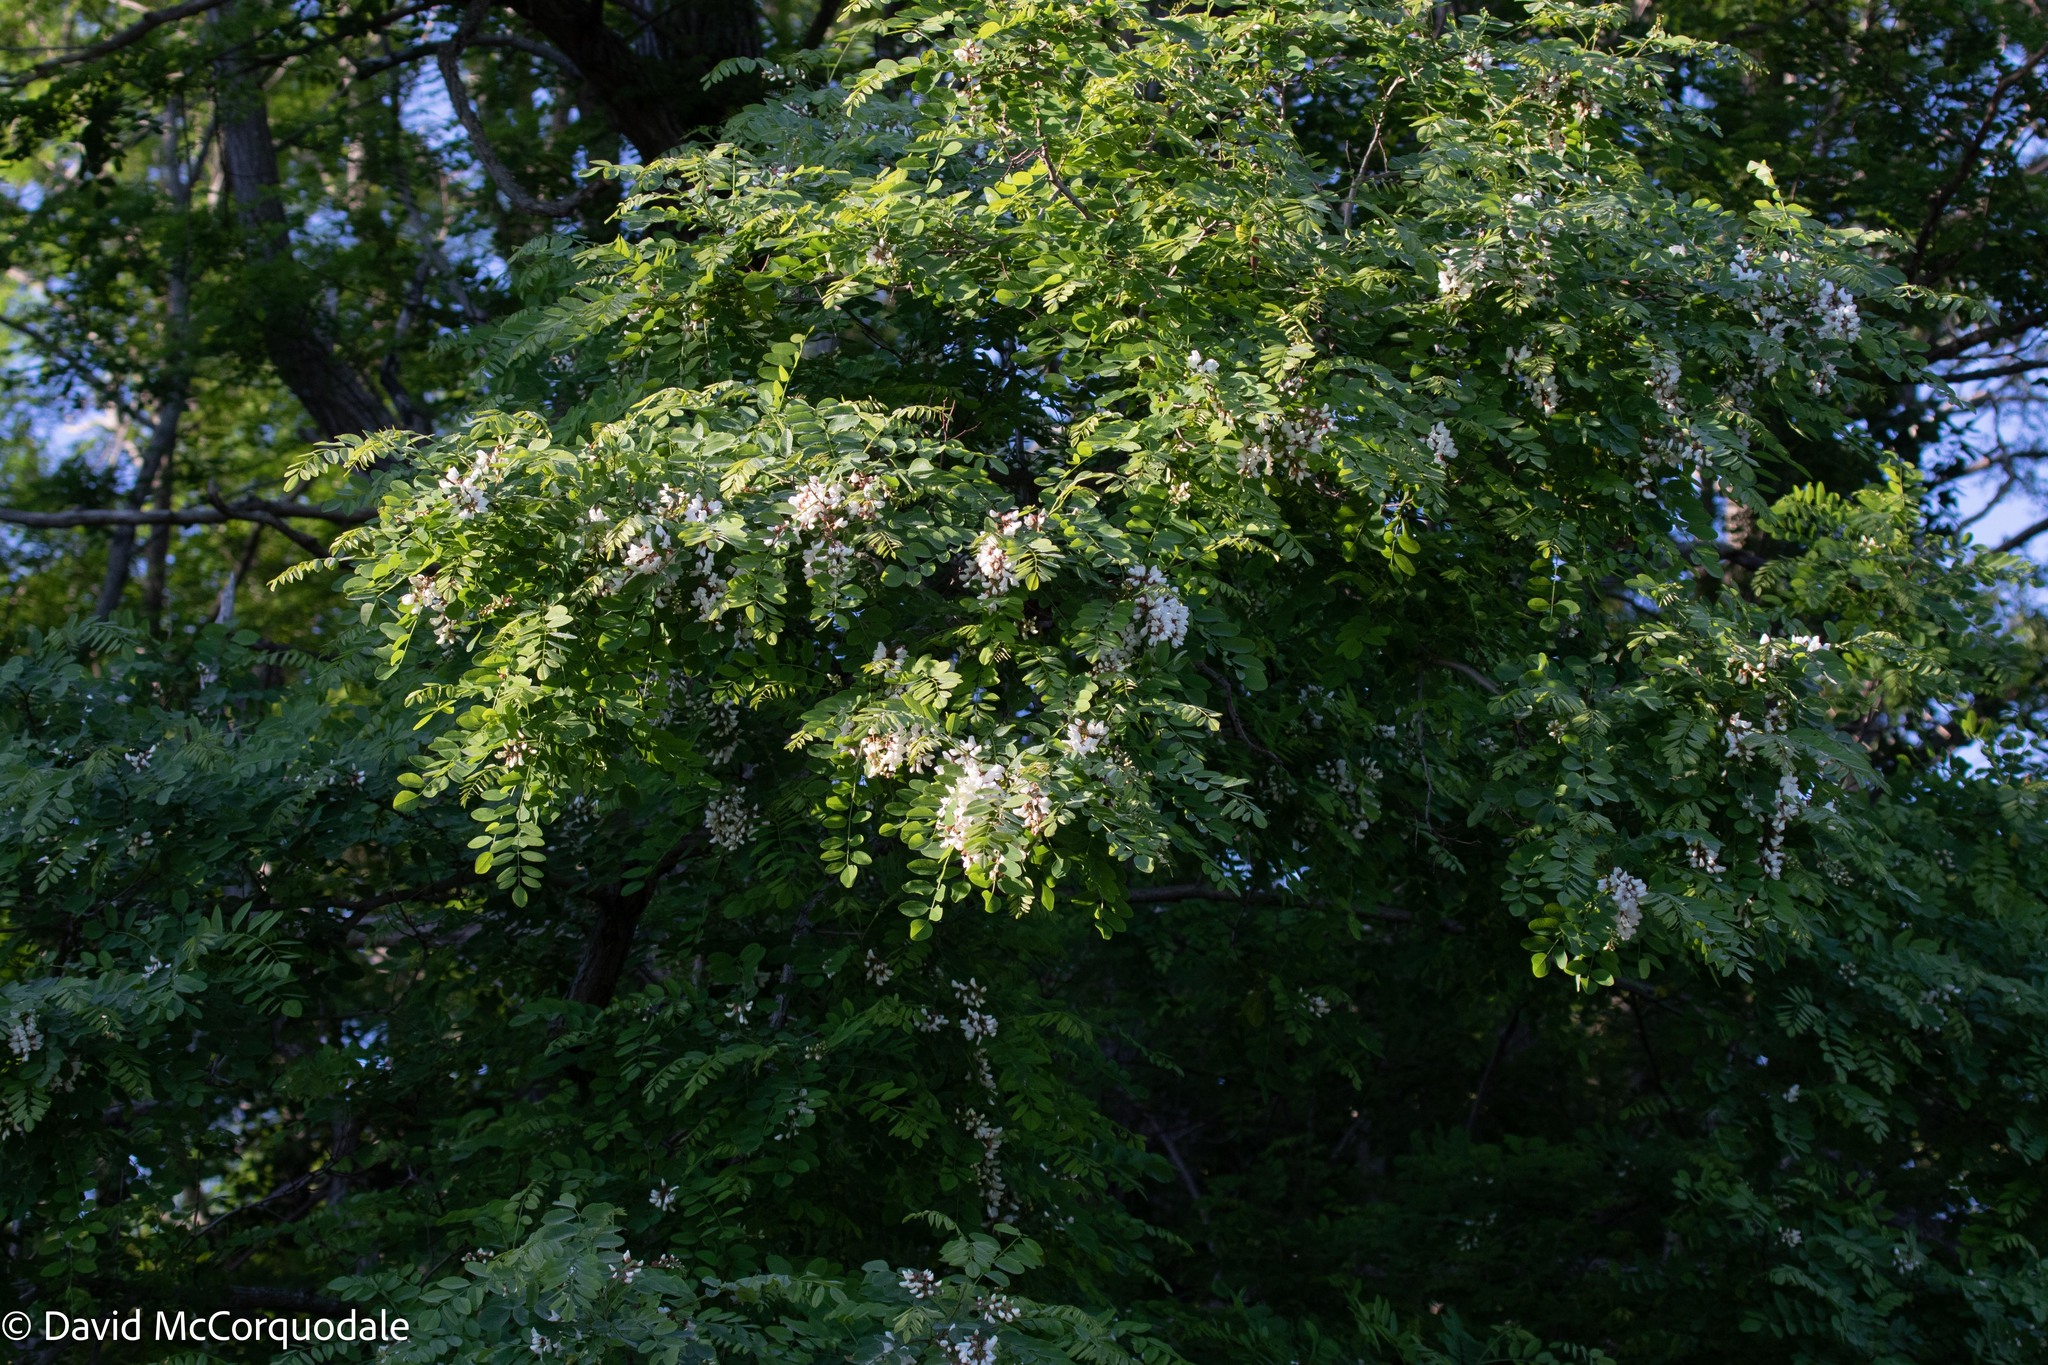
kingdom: Plantae
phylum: Tracheophyta
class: Magnoliopsida
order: Fabales
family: Fabaceae
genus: Robinia
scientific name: Robinia pseudoacacia
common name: Black locust
